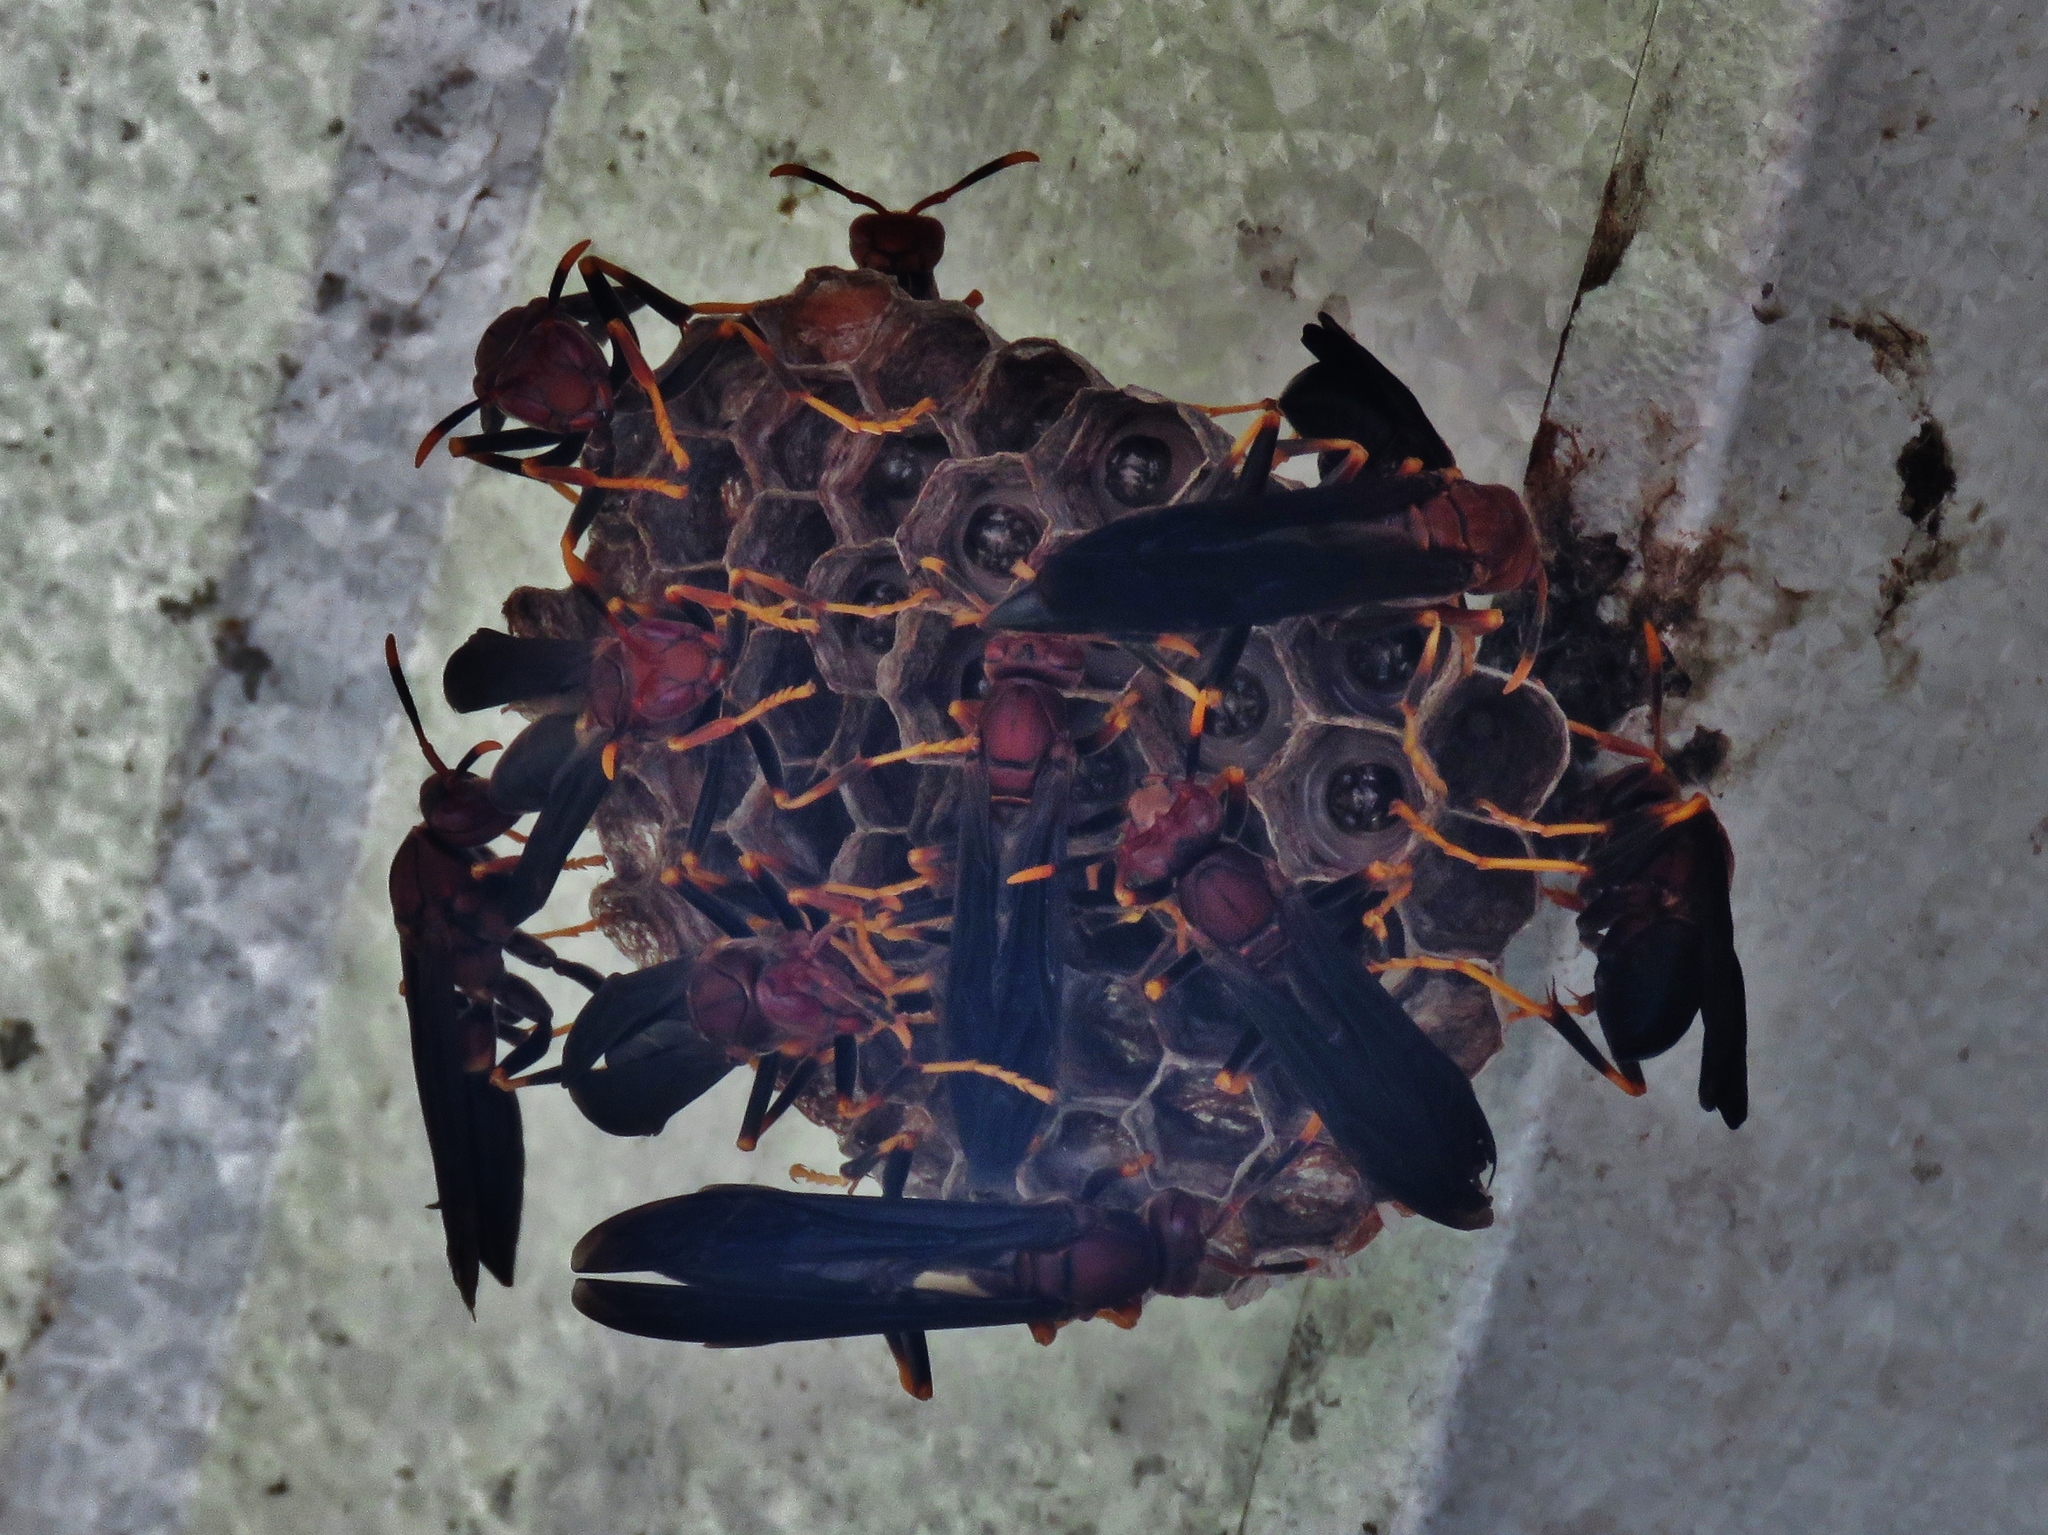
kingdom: Animalia
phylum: Arthropoda
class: Insecta
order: Hymenoptera
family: Eumenidae
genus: Polistes
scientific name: Polistes annularis
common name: Ringed paper wasp
